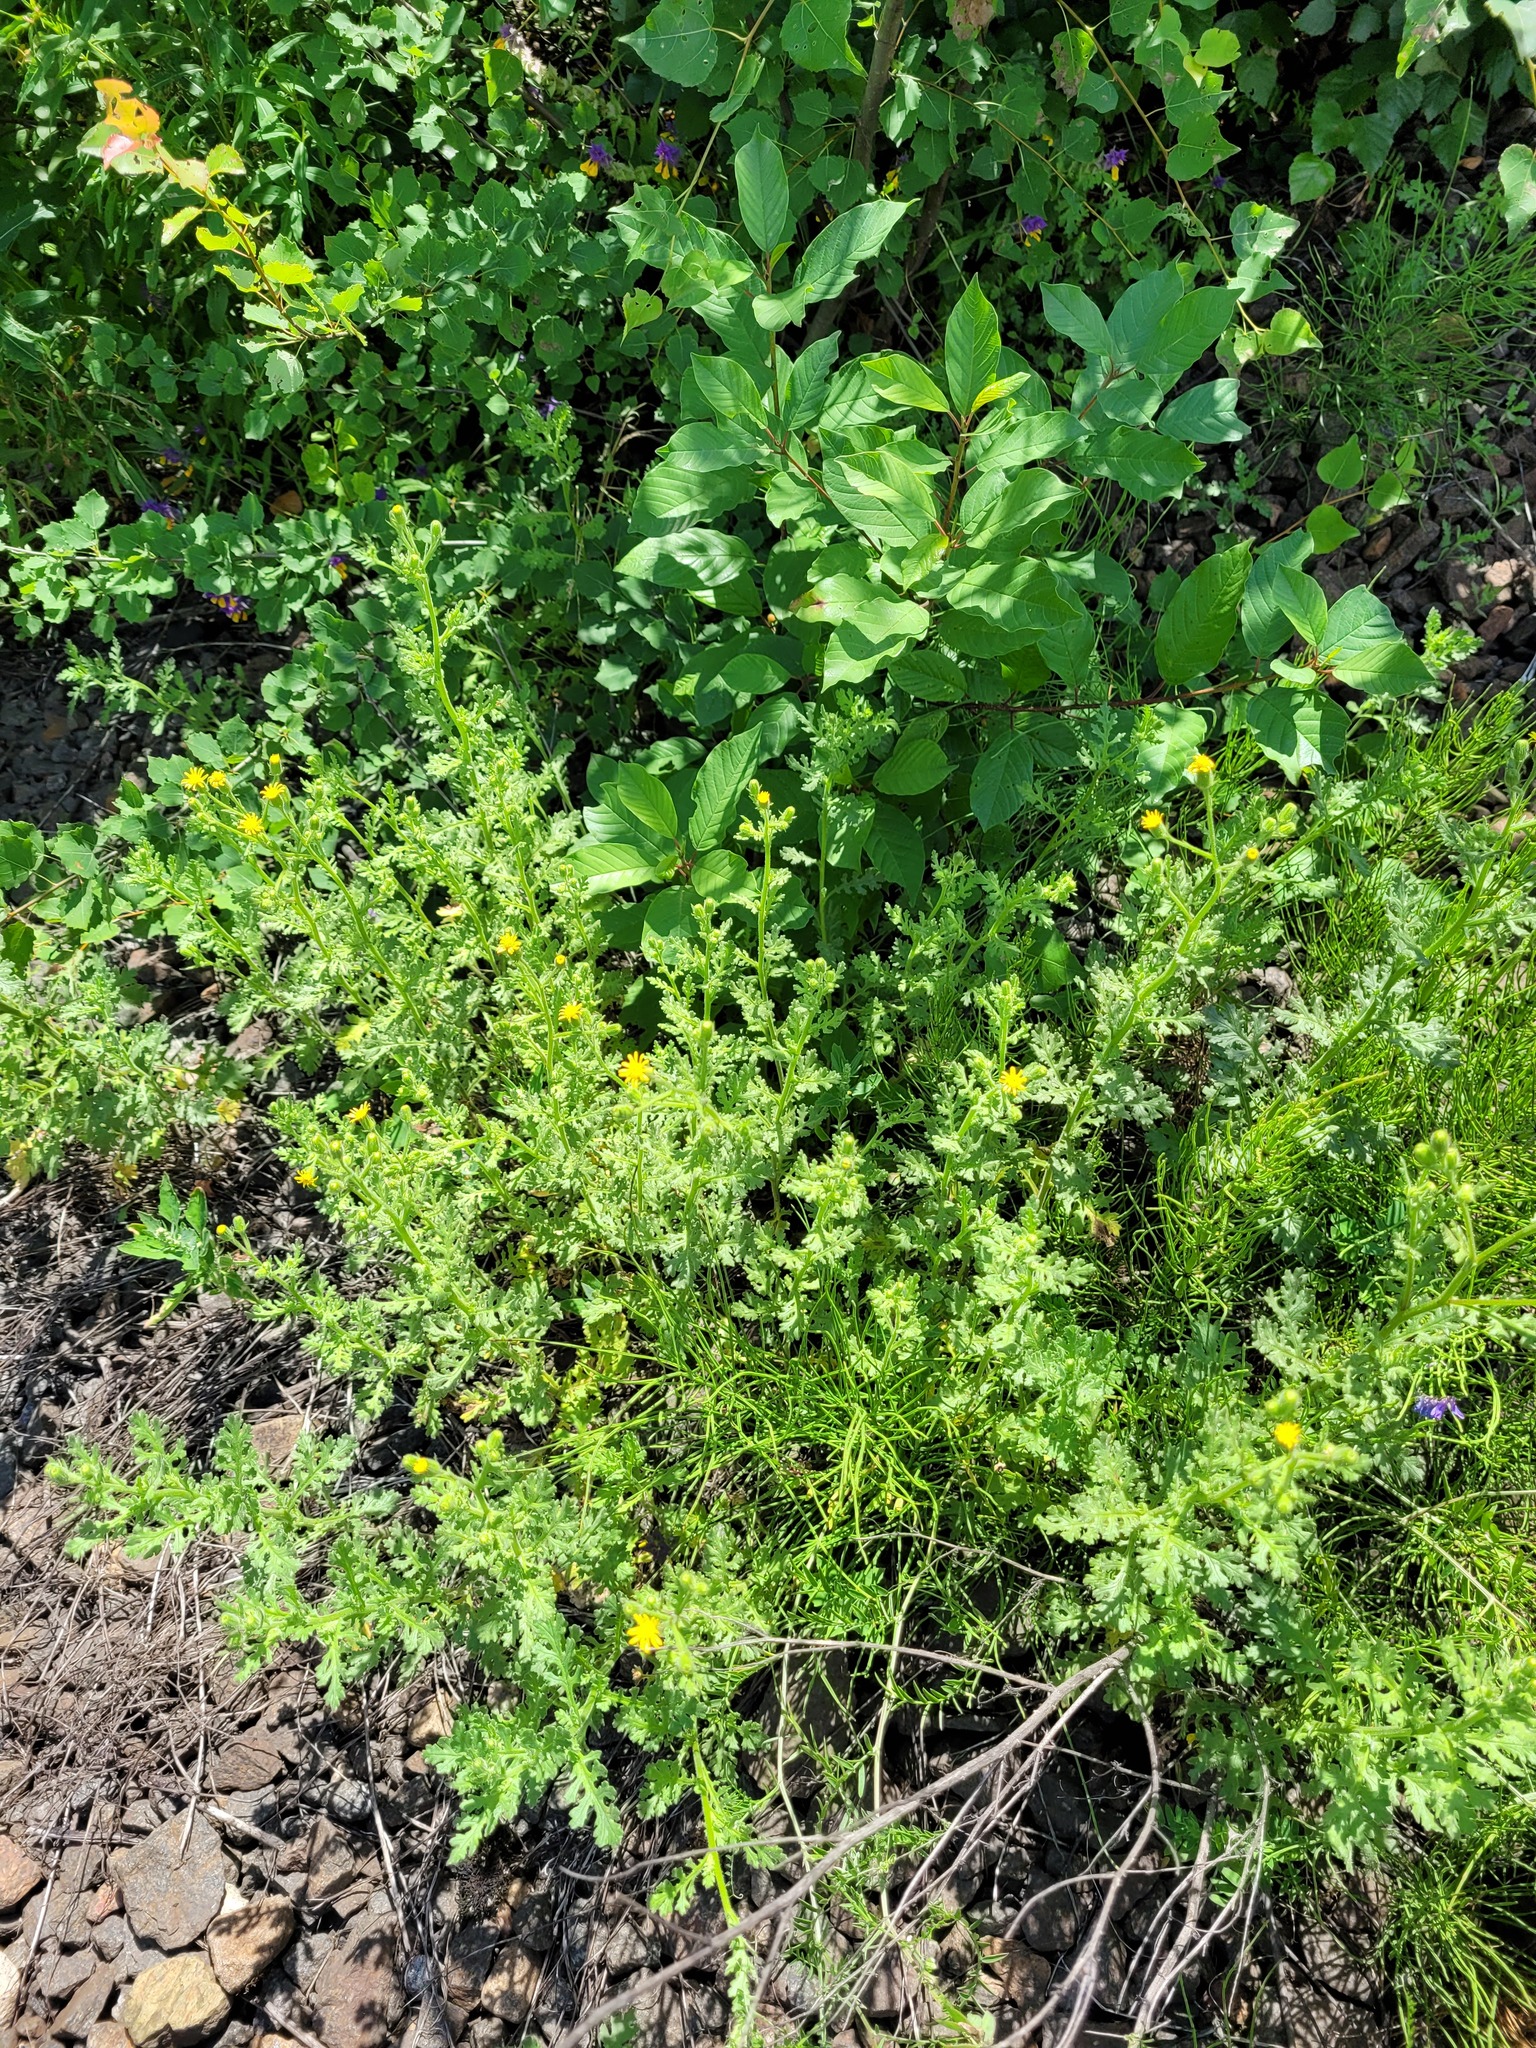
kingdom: Plantae
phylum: Tracheophyta
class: Magnoliopsida
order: Asterales
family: Asteraceae
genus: Senecio
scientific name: Senecio viscosus
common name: Sticky groundsel
